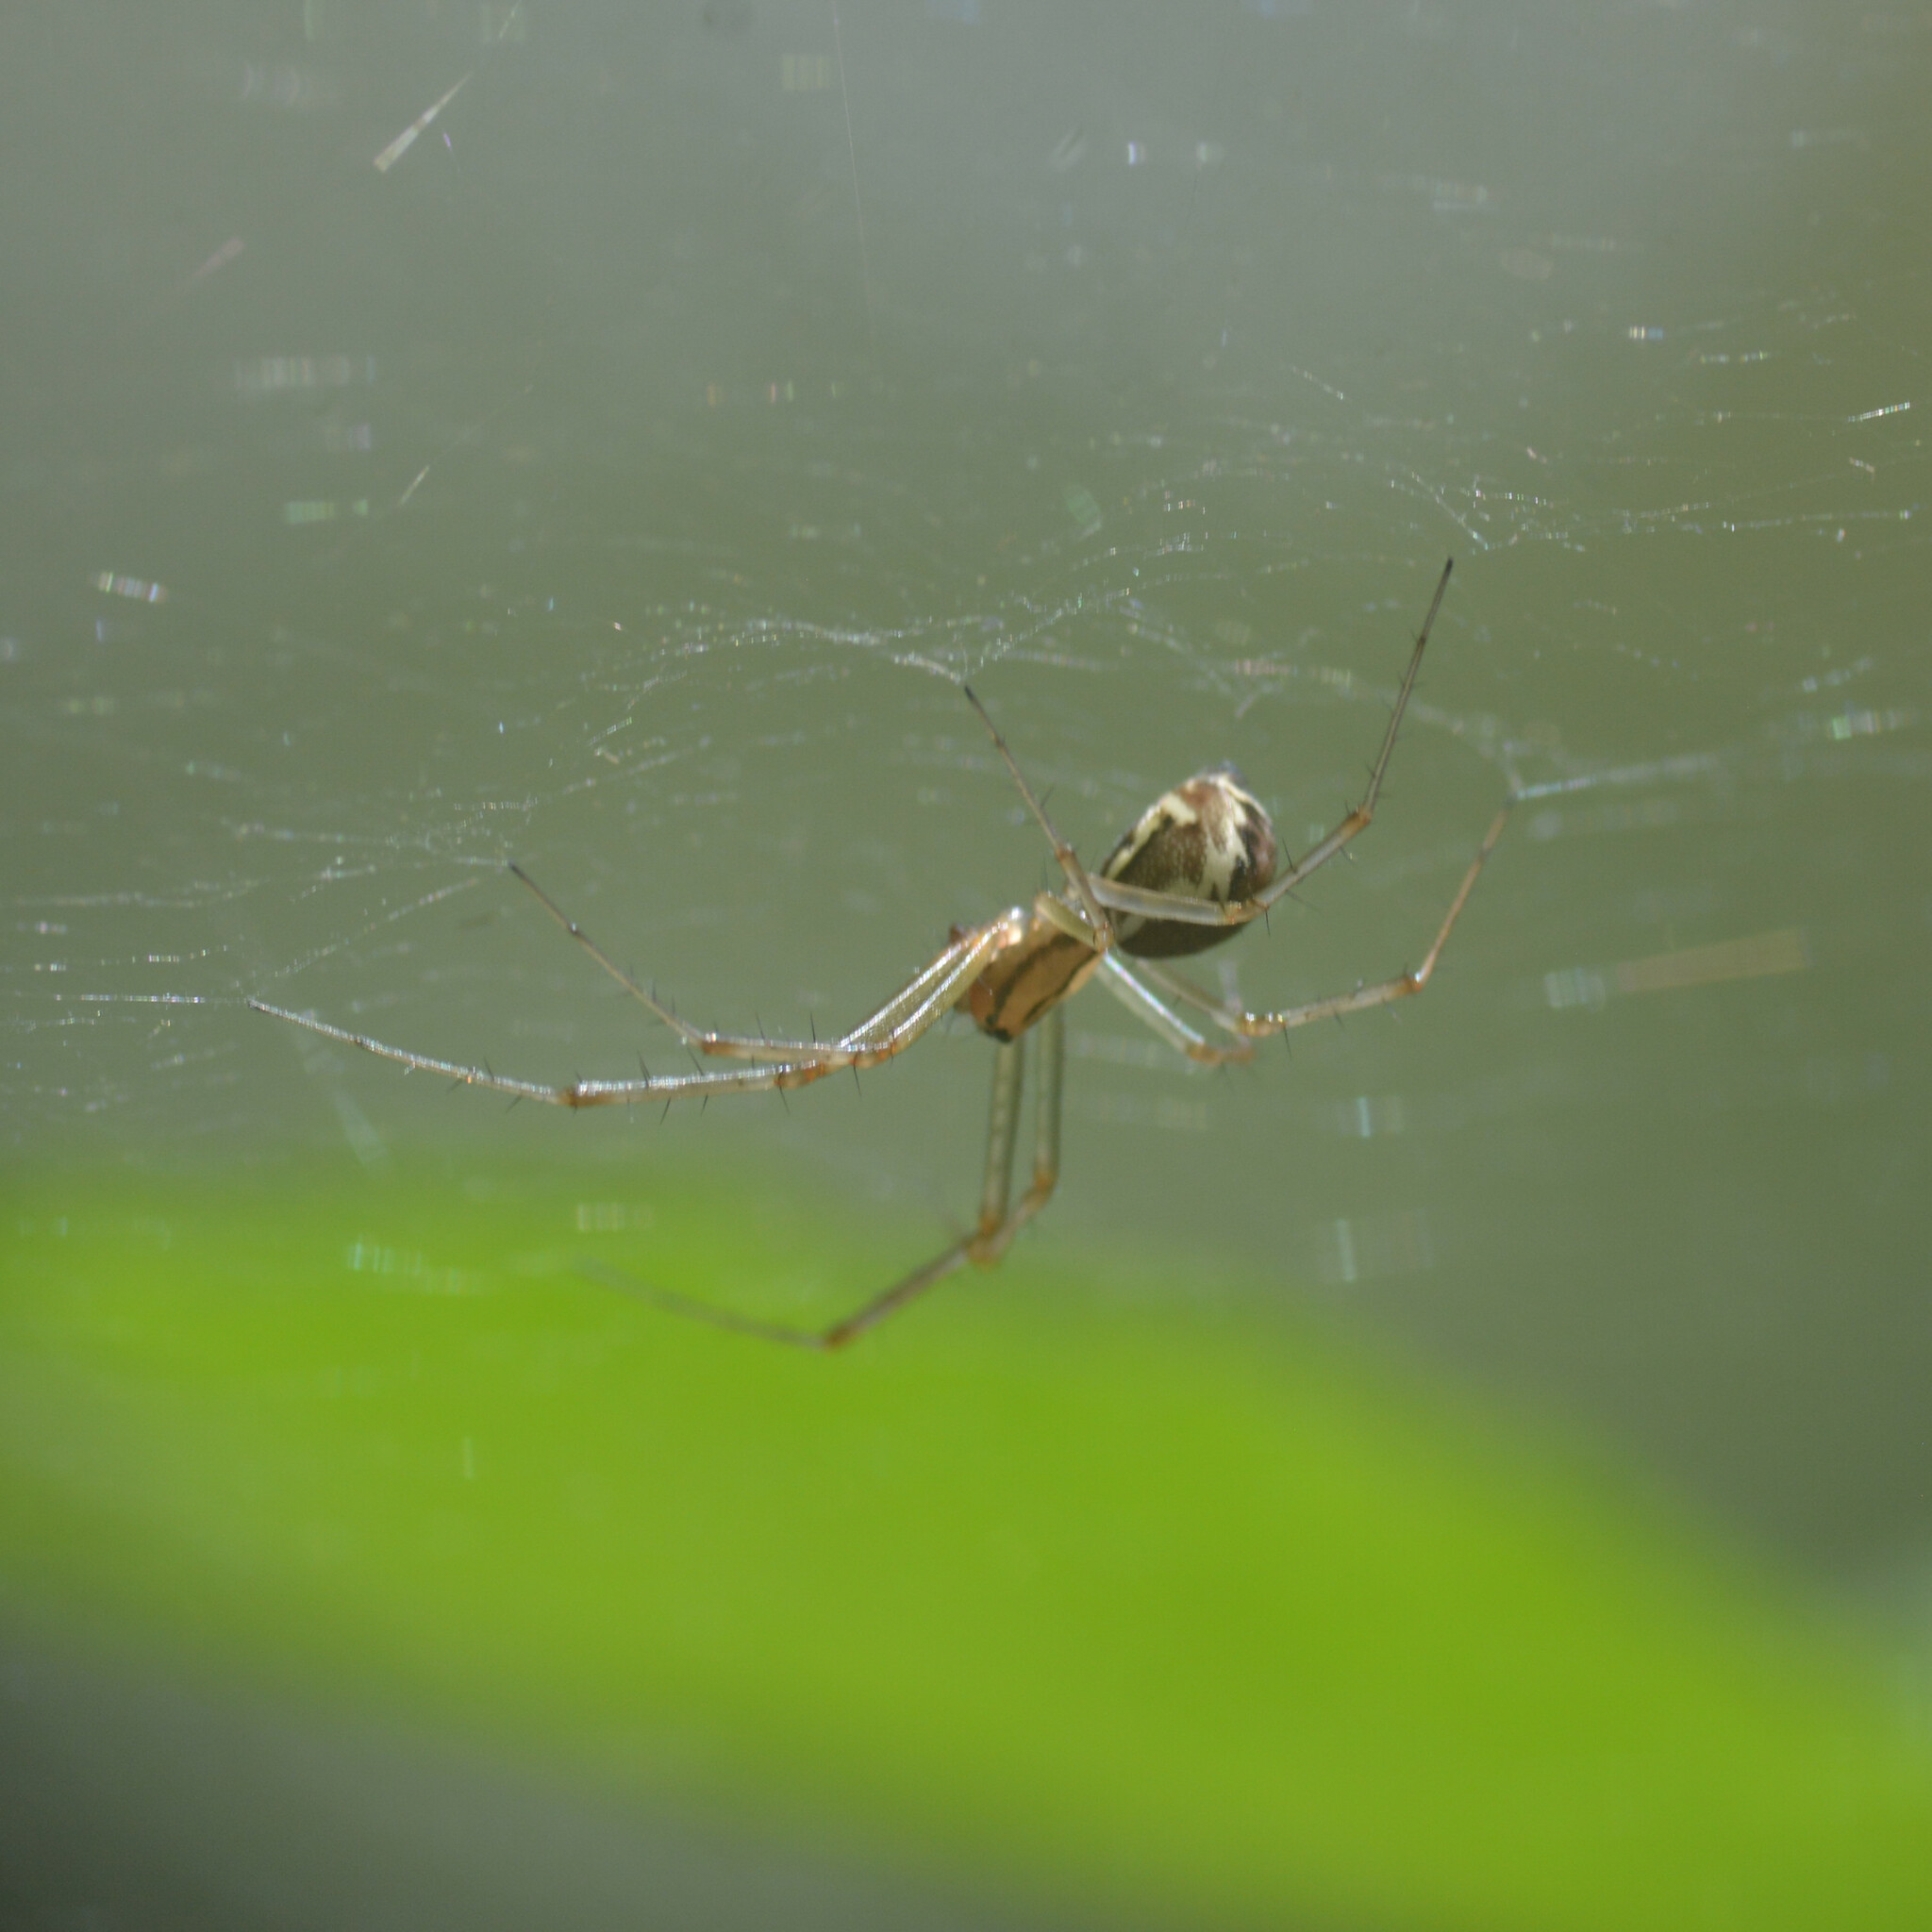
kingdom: Animalia
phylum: Arthropoda
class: Arachnida
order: Araneae
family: Linyphiidae
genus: Linyphia
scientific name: Linyphia triangularis
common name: Money spider
